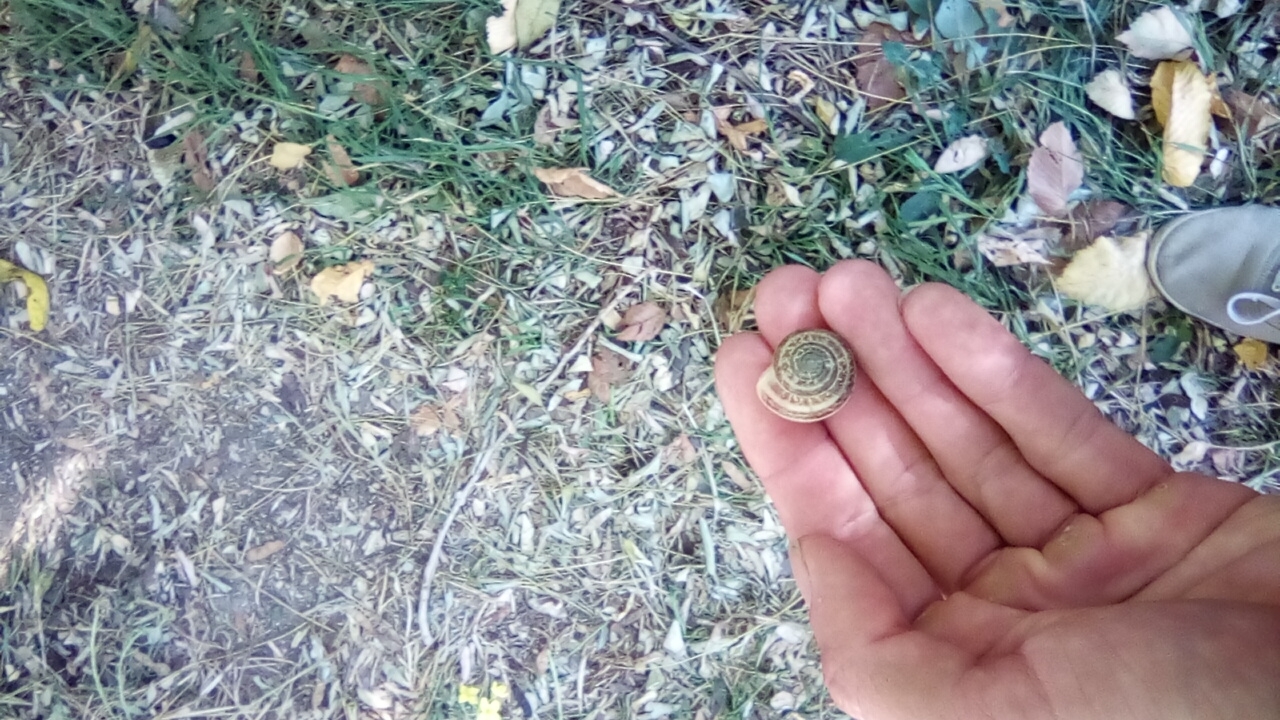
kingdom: Animalia
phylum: Mollusca
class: Gastropoda
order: Stylommatophora
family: Helicidae
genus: Eobania
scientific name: Eobania vermiculata
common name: Chocolateband snail
